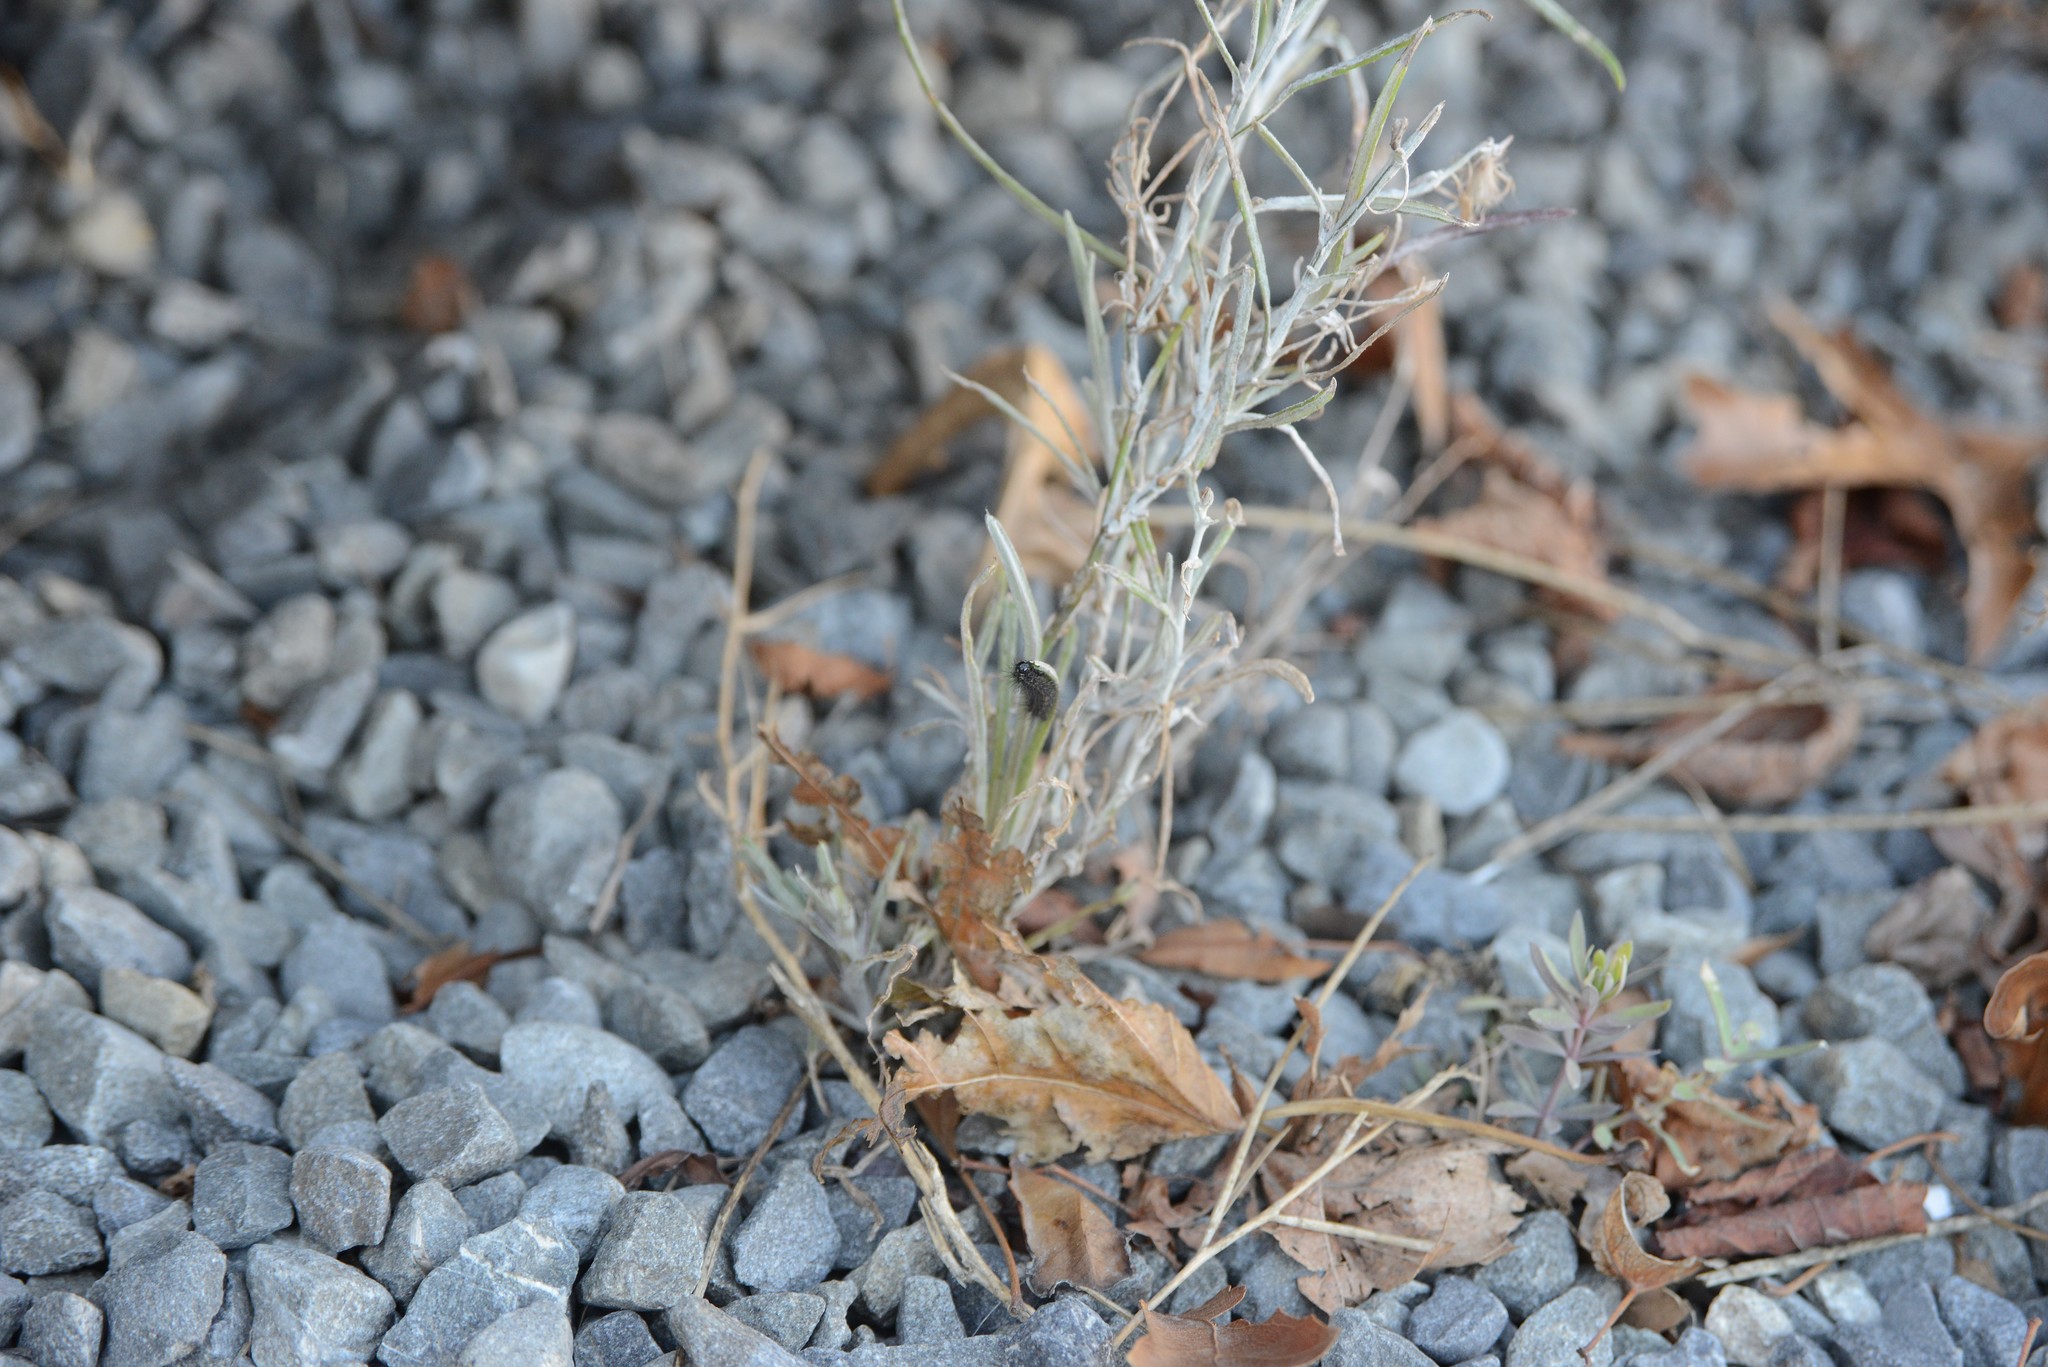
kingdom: Animalia
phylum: Arthropoda
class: Insecta
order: Lepidoptera
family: Erebidae
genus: Nyctemera
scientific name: Nyctemera annulatum
